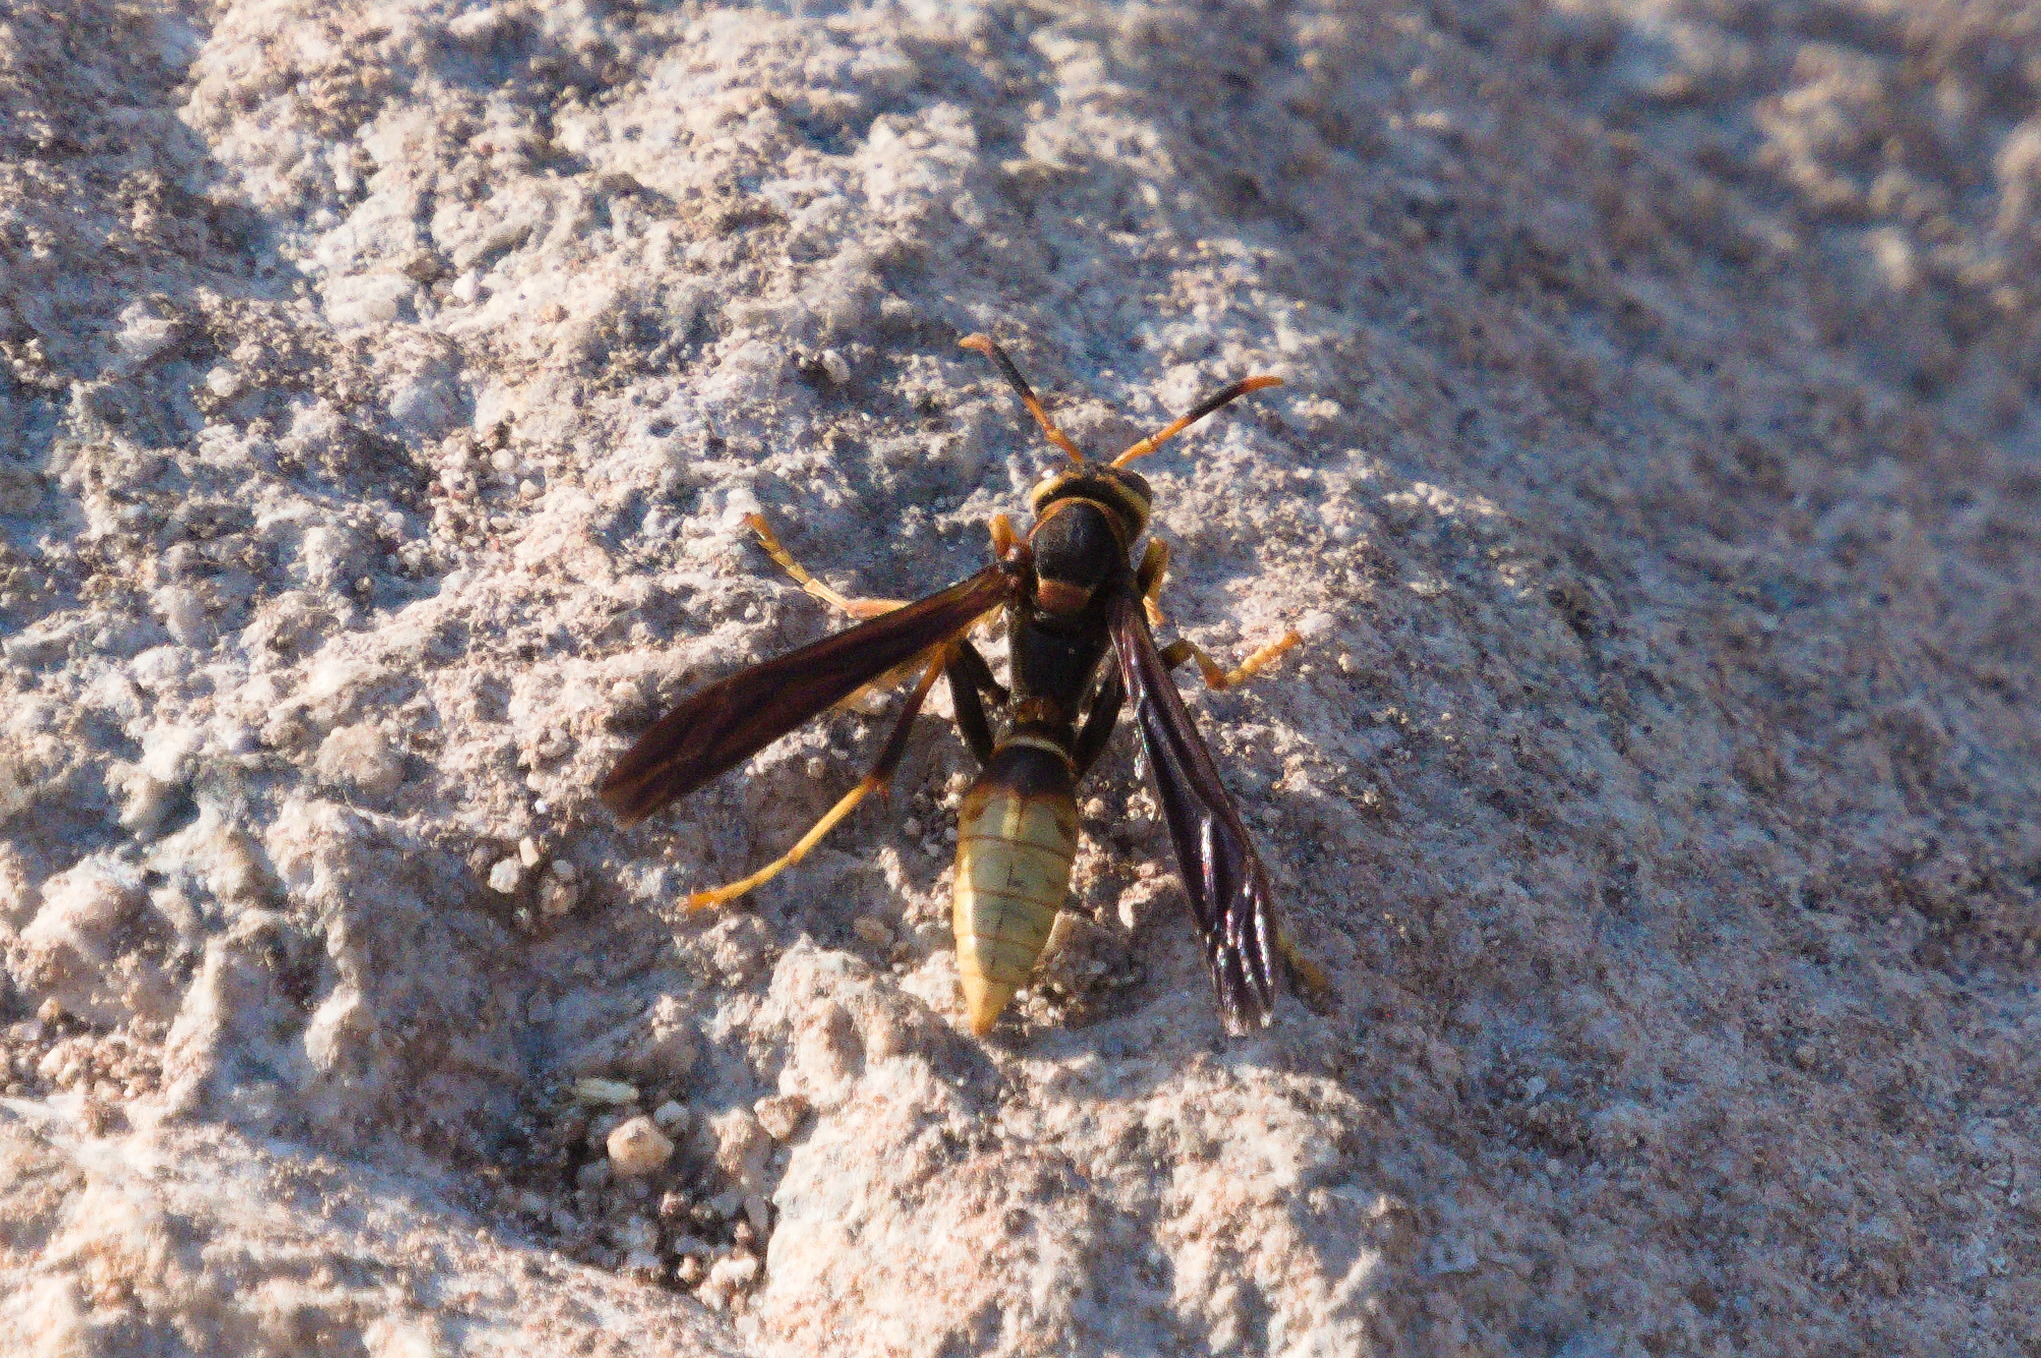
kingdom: Animalia
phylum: Arthropoda
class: Insecta
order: Hymenoptera
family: Eumenidae
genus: Polistes
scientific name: Polistes comanchus
